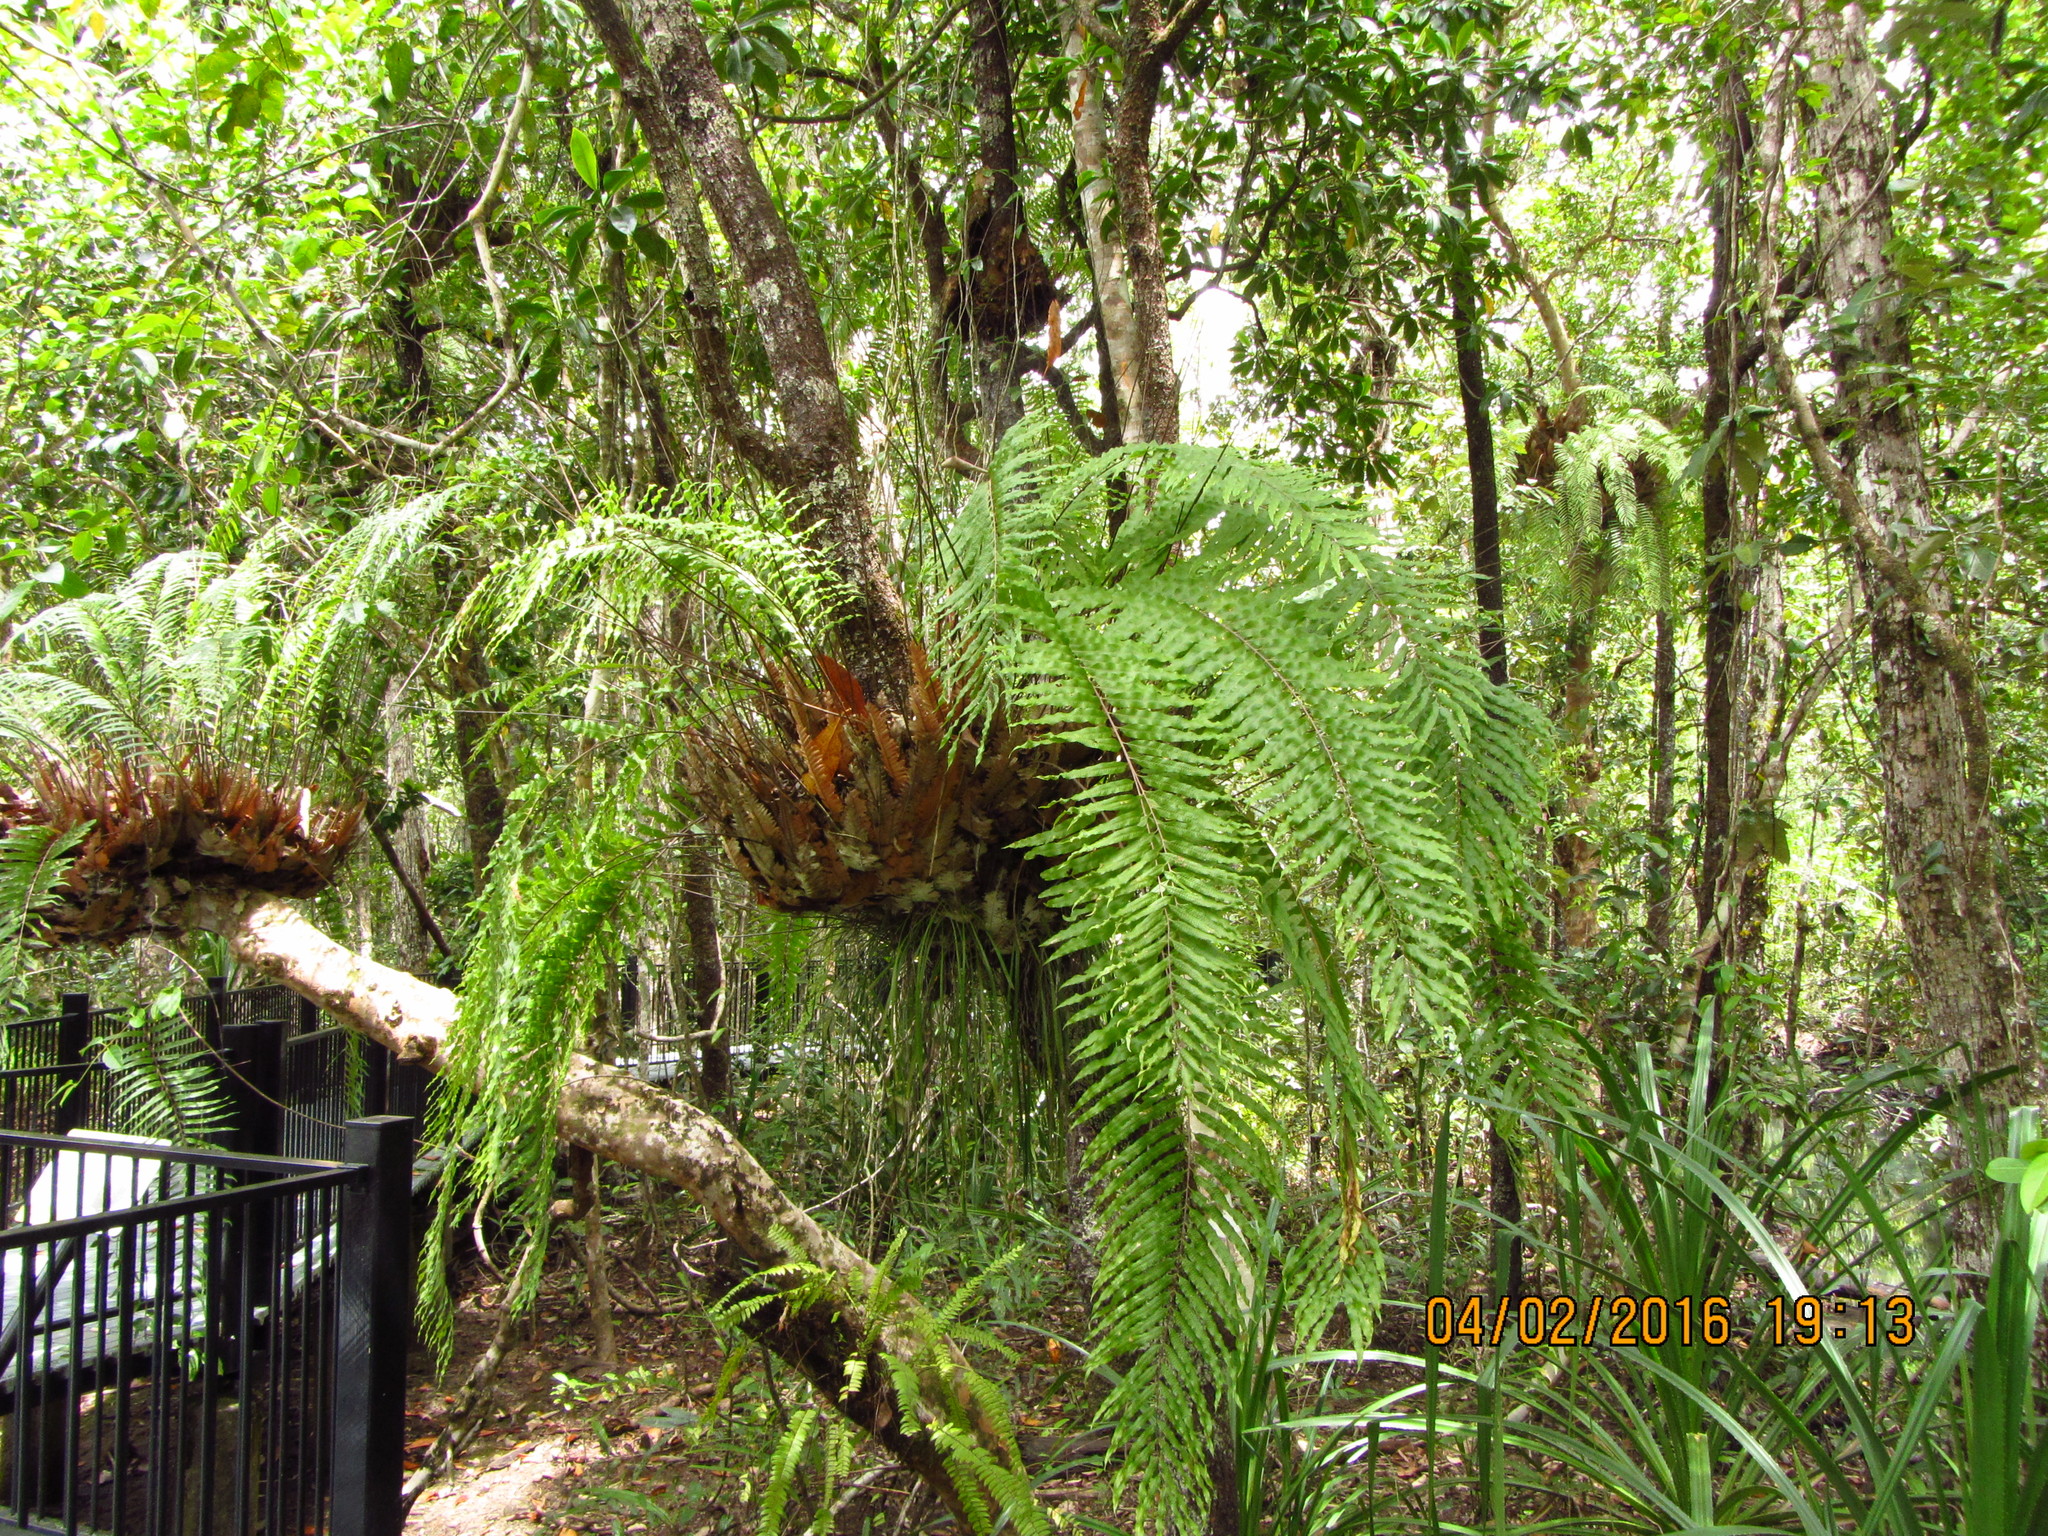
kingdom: Plantae
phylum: Tracheophyta
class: Polypodiopsida
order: Polypodiales
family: Polypodiaceae
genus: Drynaria
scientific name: Drynaria rigidula
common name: Basket fern
